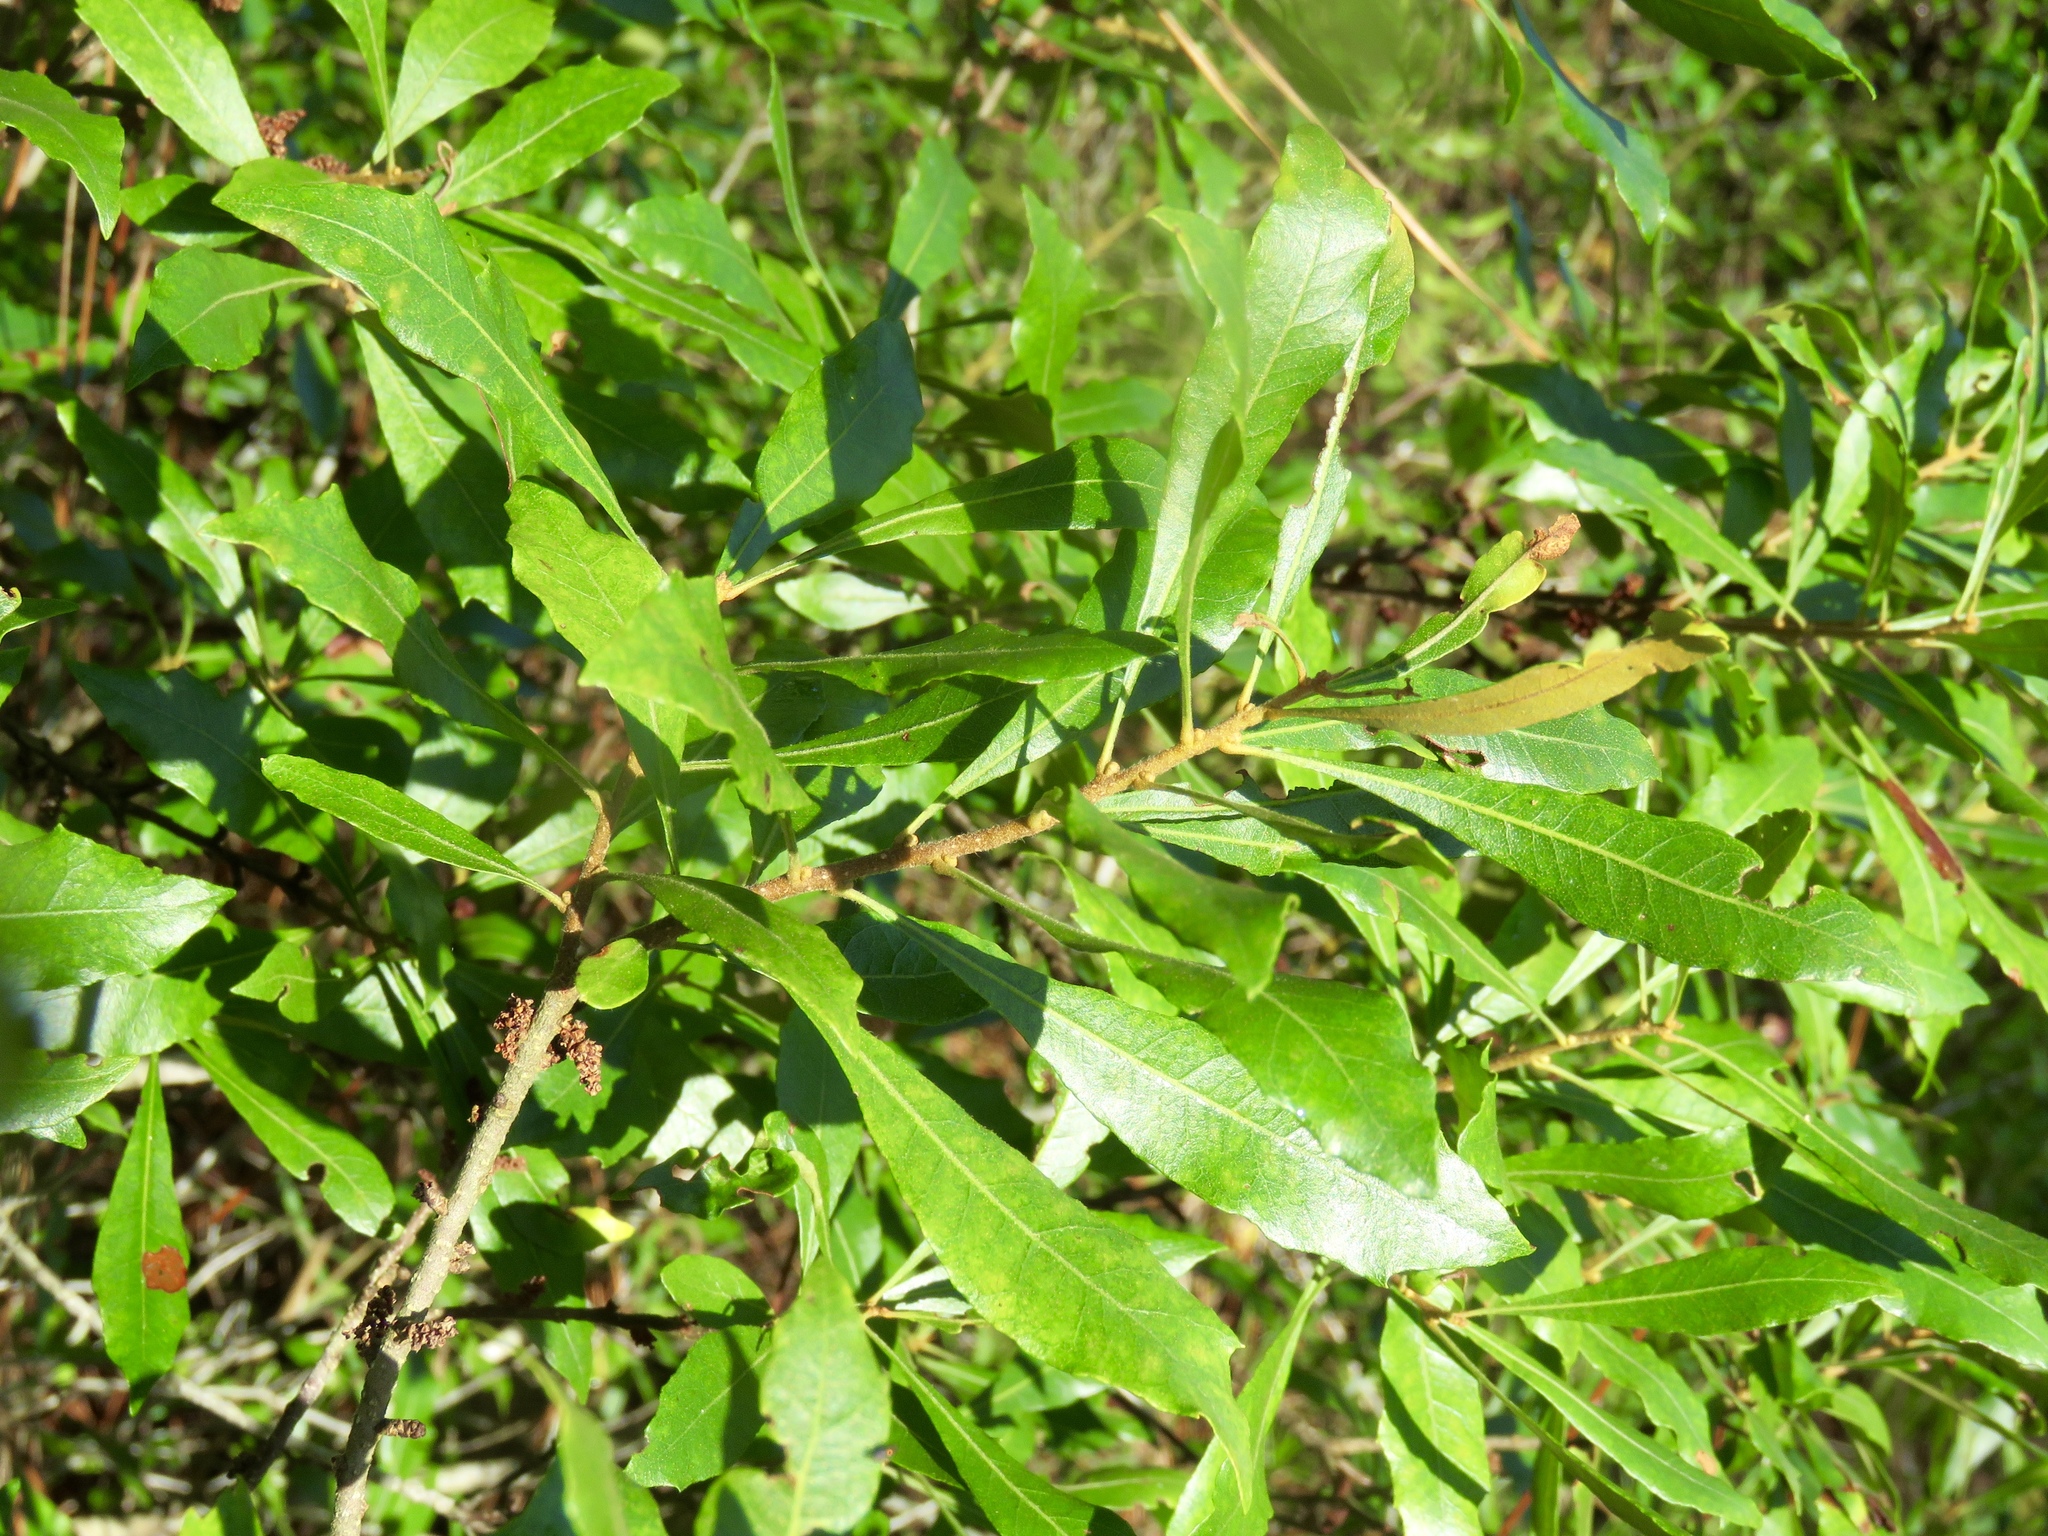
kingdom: Plantae
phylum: Tracheophyta
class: Magnoliopsida
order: Fagales
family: Myricaceae
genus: Morella
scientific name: Morella cerifera
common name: Wax myrtle
